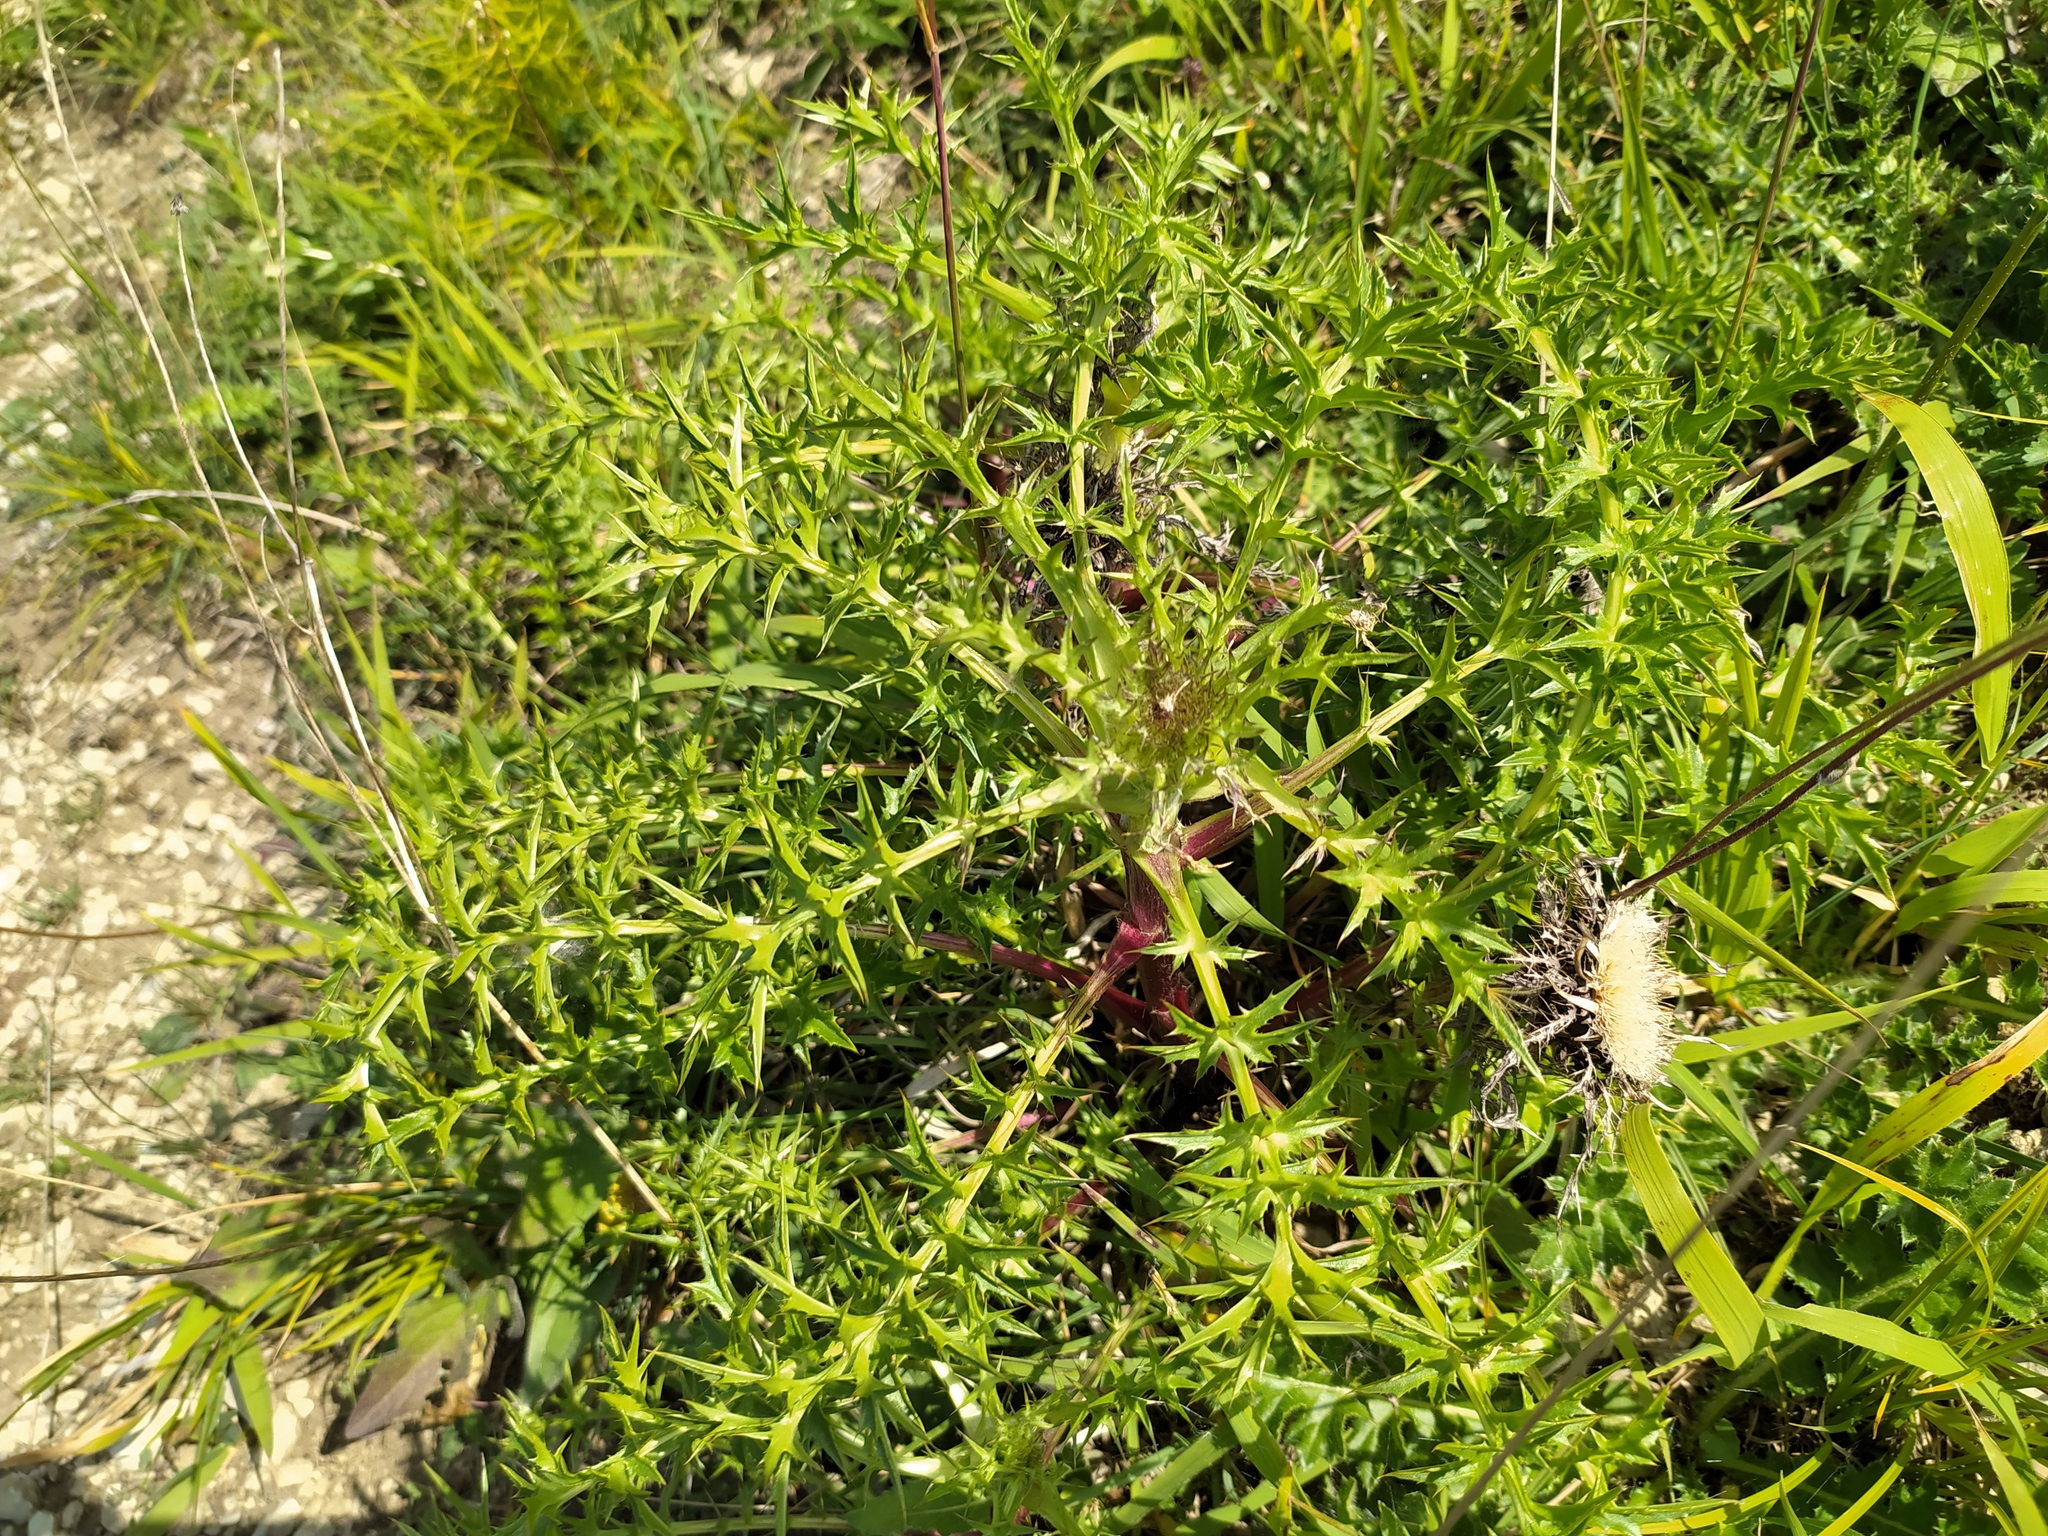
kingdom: Plantae
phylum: Tracheophyta
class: Magnoliopsida
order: Asterales
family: Asteraceae
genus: Carlina
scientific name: Carlina acaulis
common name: Stemless carline thistle
